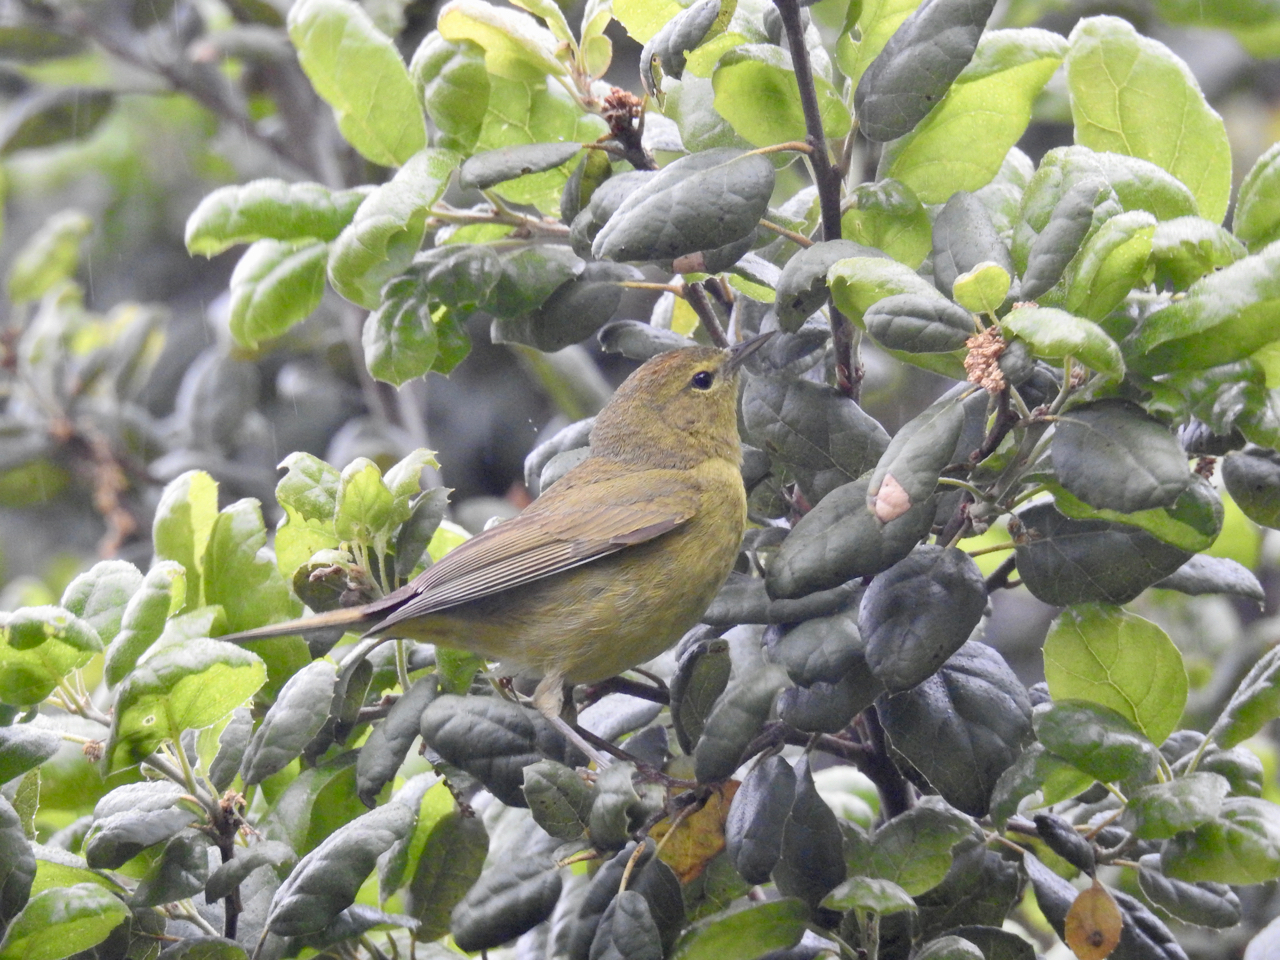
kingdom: Animalia
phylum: Chordata
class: Aves
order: Passeriformes
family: Parulidae
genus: Leiothlypis
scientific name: Leiothlypis celata
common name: Orange-crowned warbler
